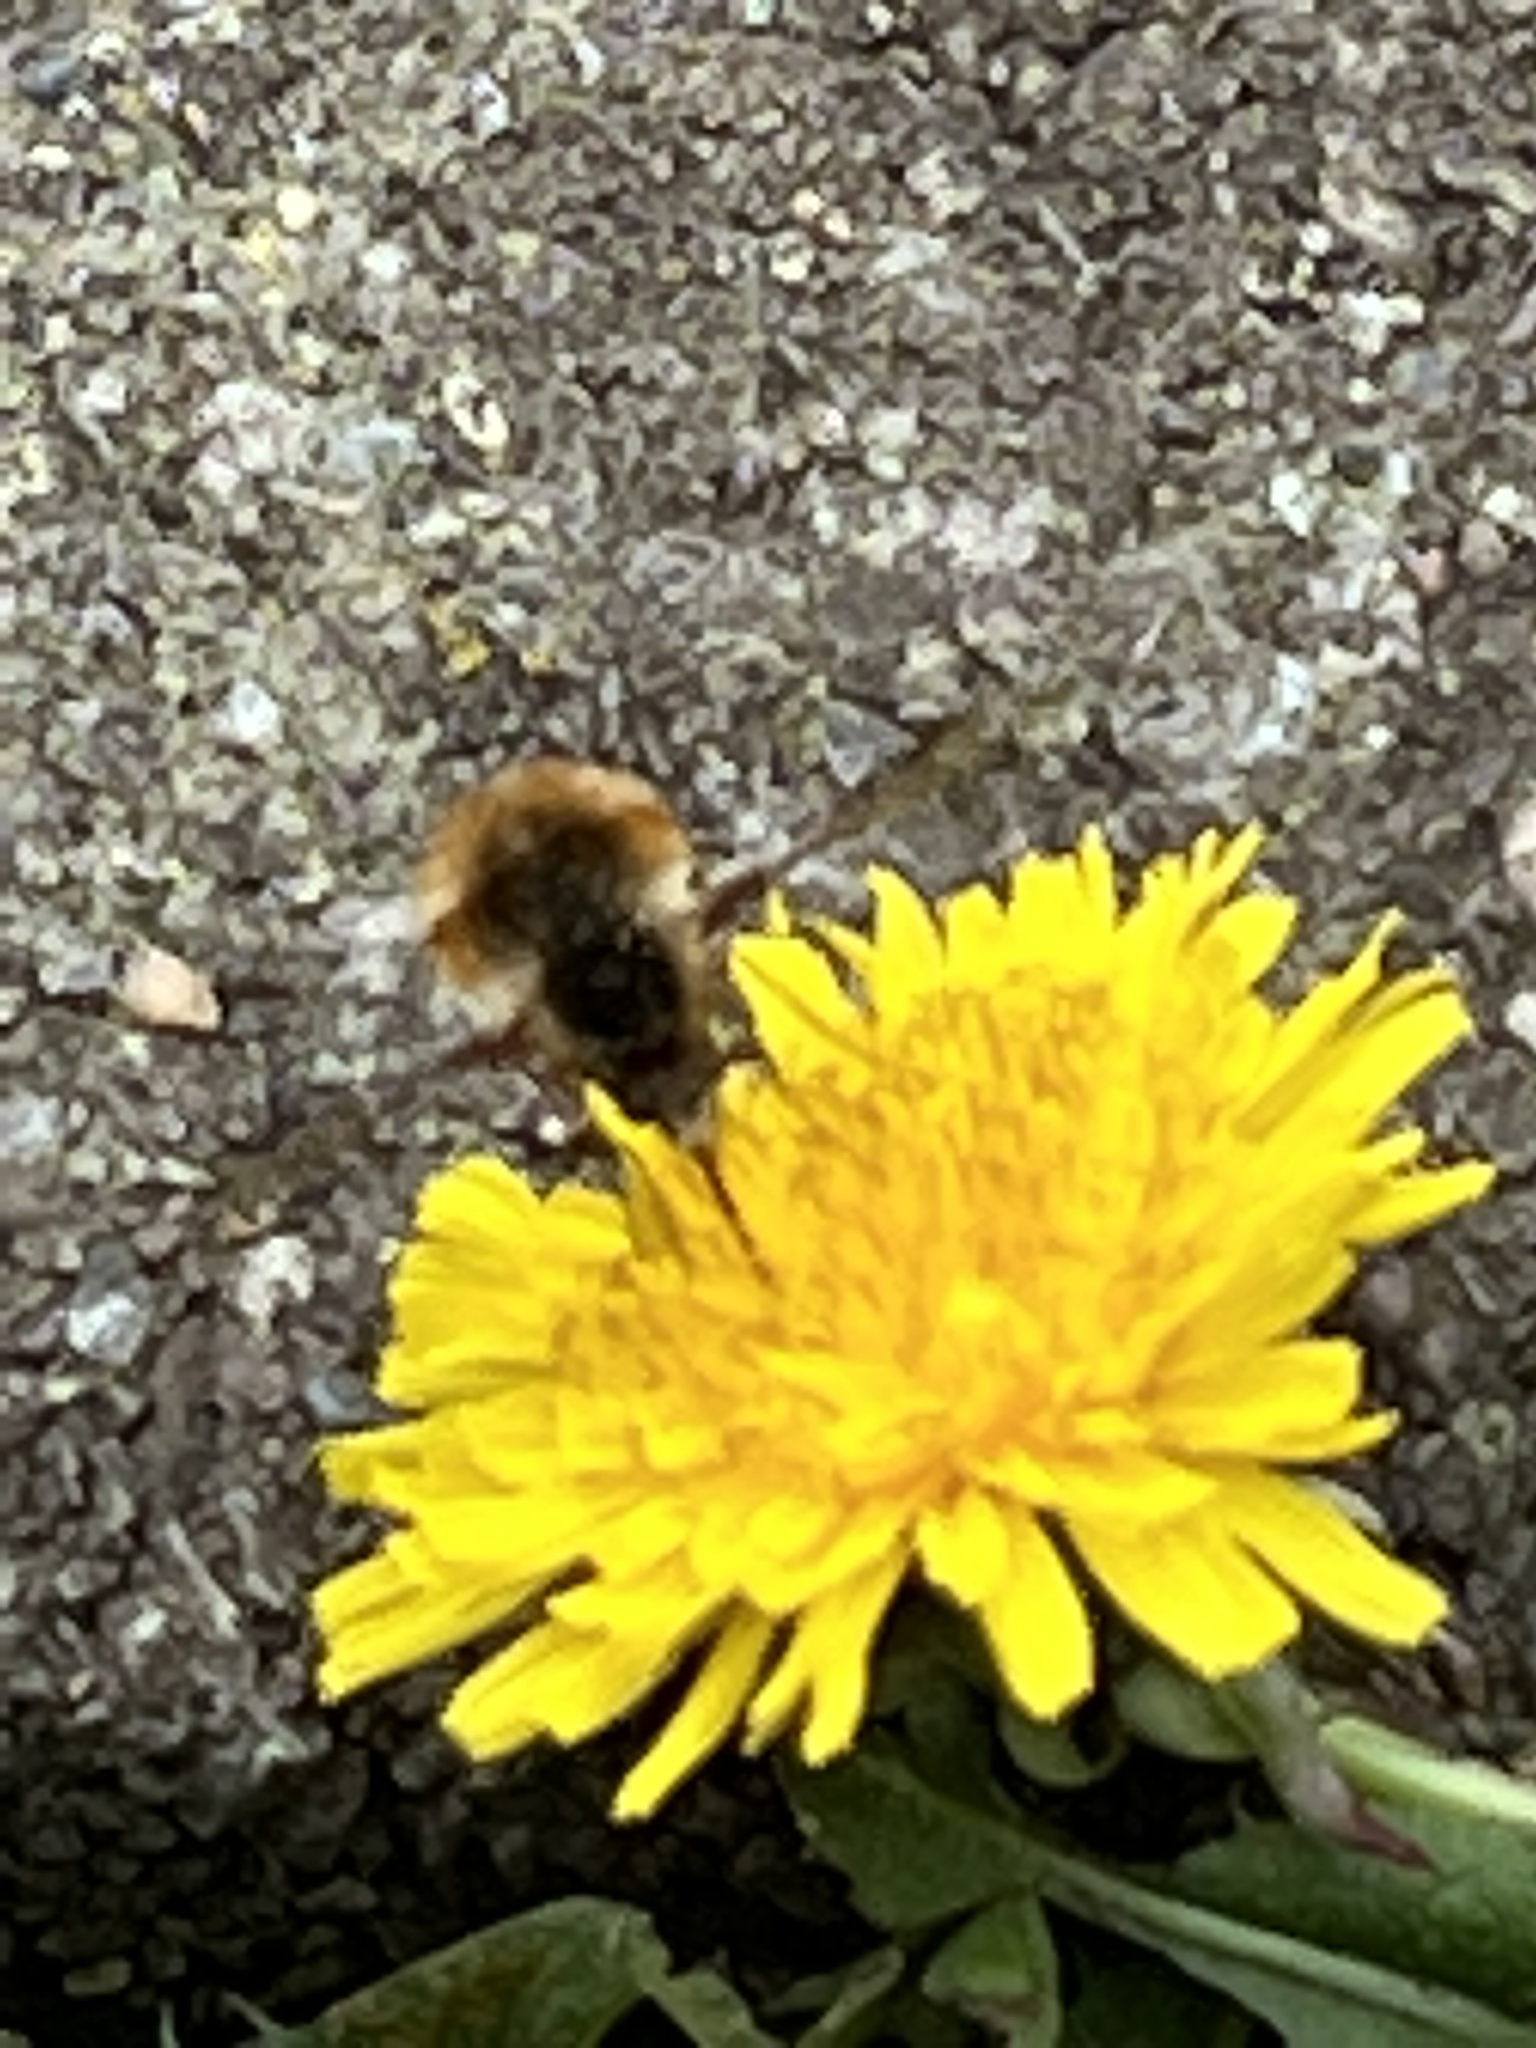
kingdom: Animalia
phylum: Arthropoda
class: Insecta
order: Diptera
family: Bombyliidae
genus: Bombylius
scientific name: Bombylius major
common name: Bee fly
